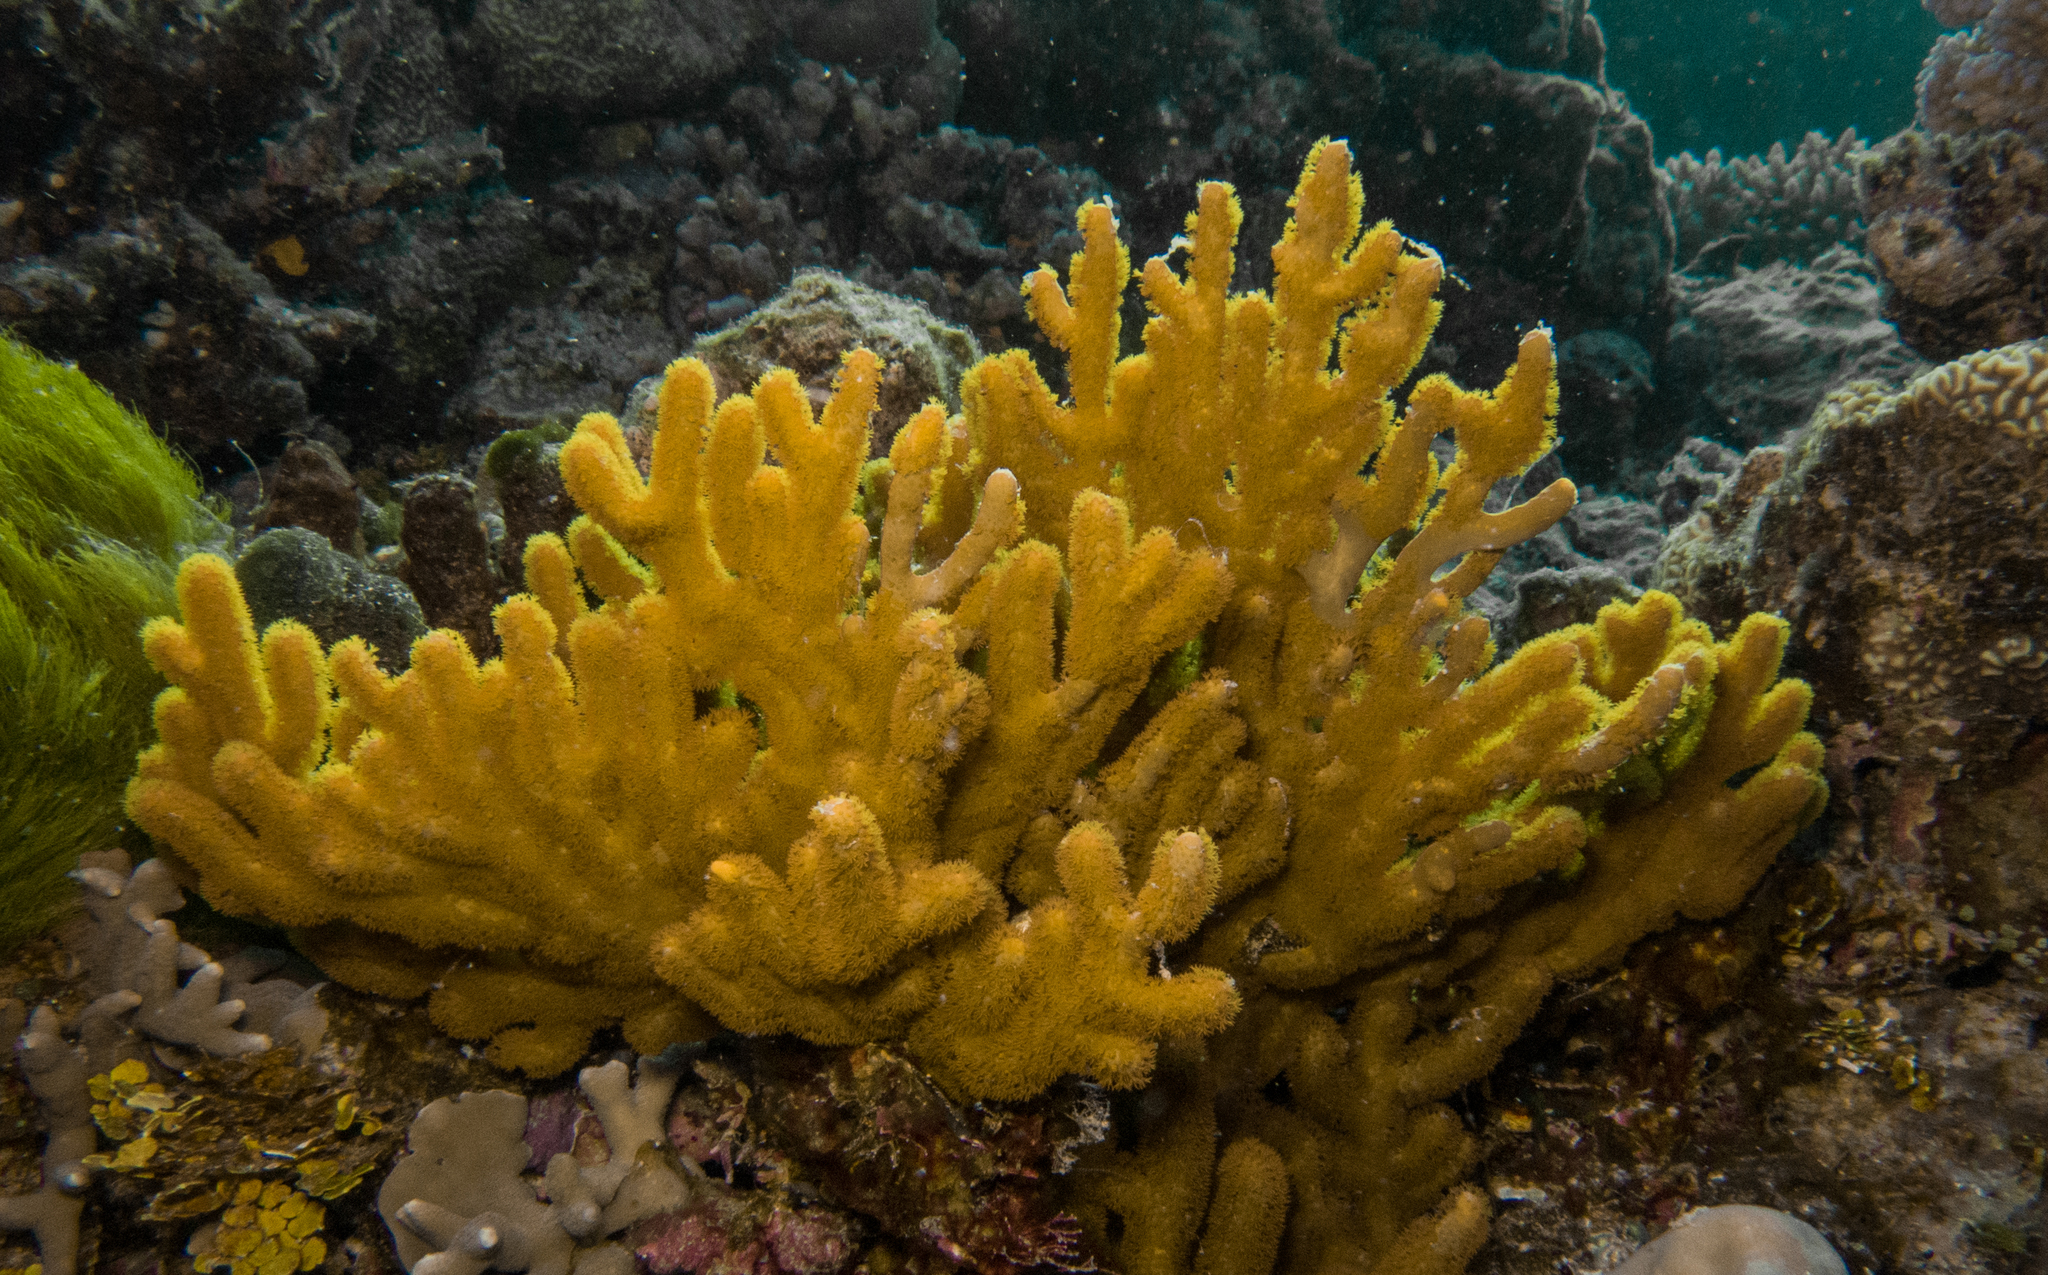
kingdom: Animalia
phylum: Cnidaria
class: Anthozoa
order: Malacalcyonacea
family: Isididae
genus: Isis
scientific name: Isis hippuris
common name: Golden sea fan
